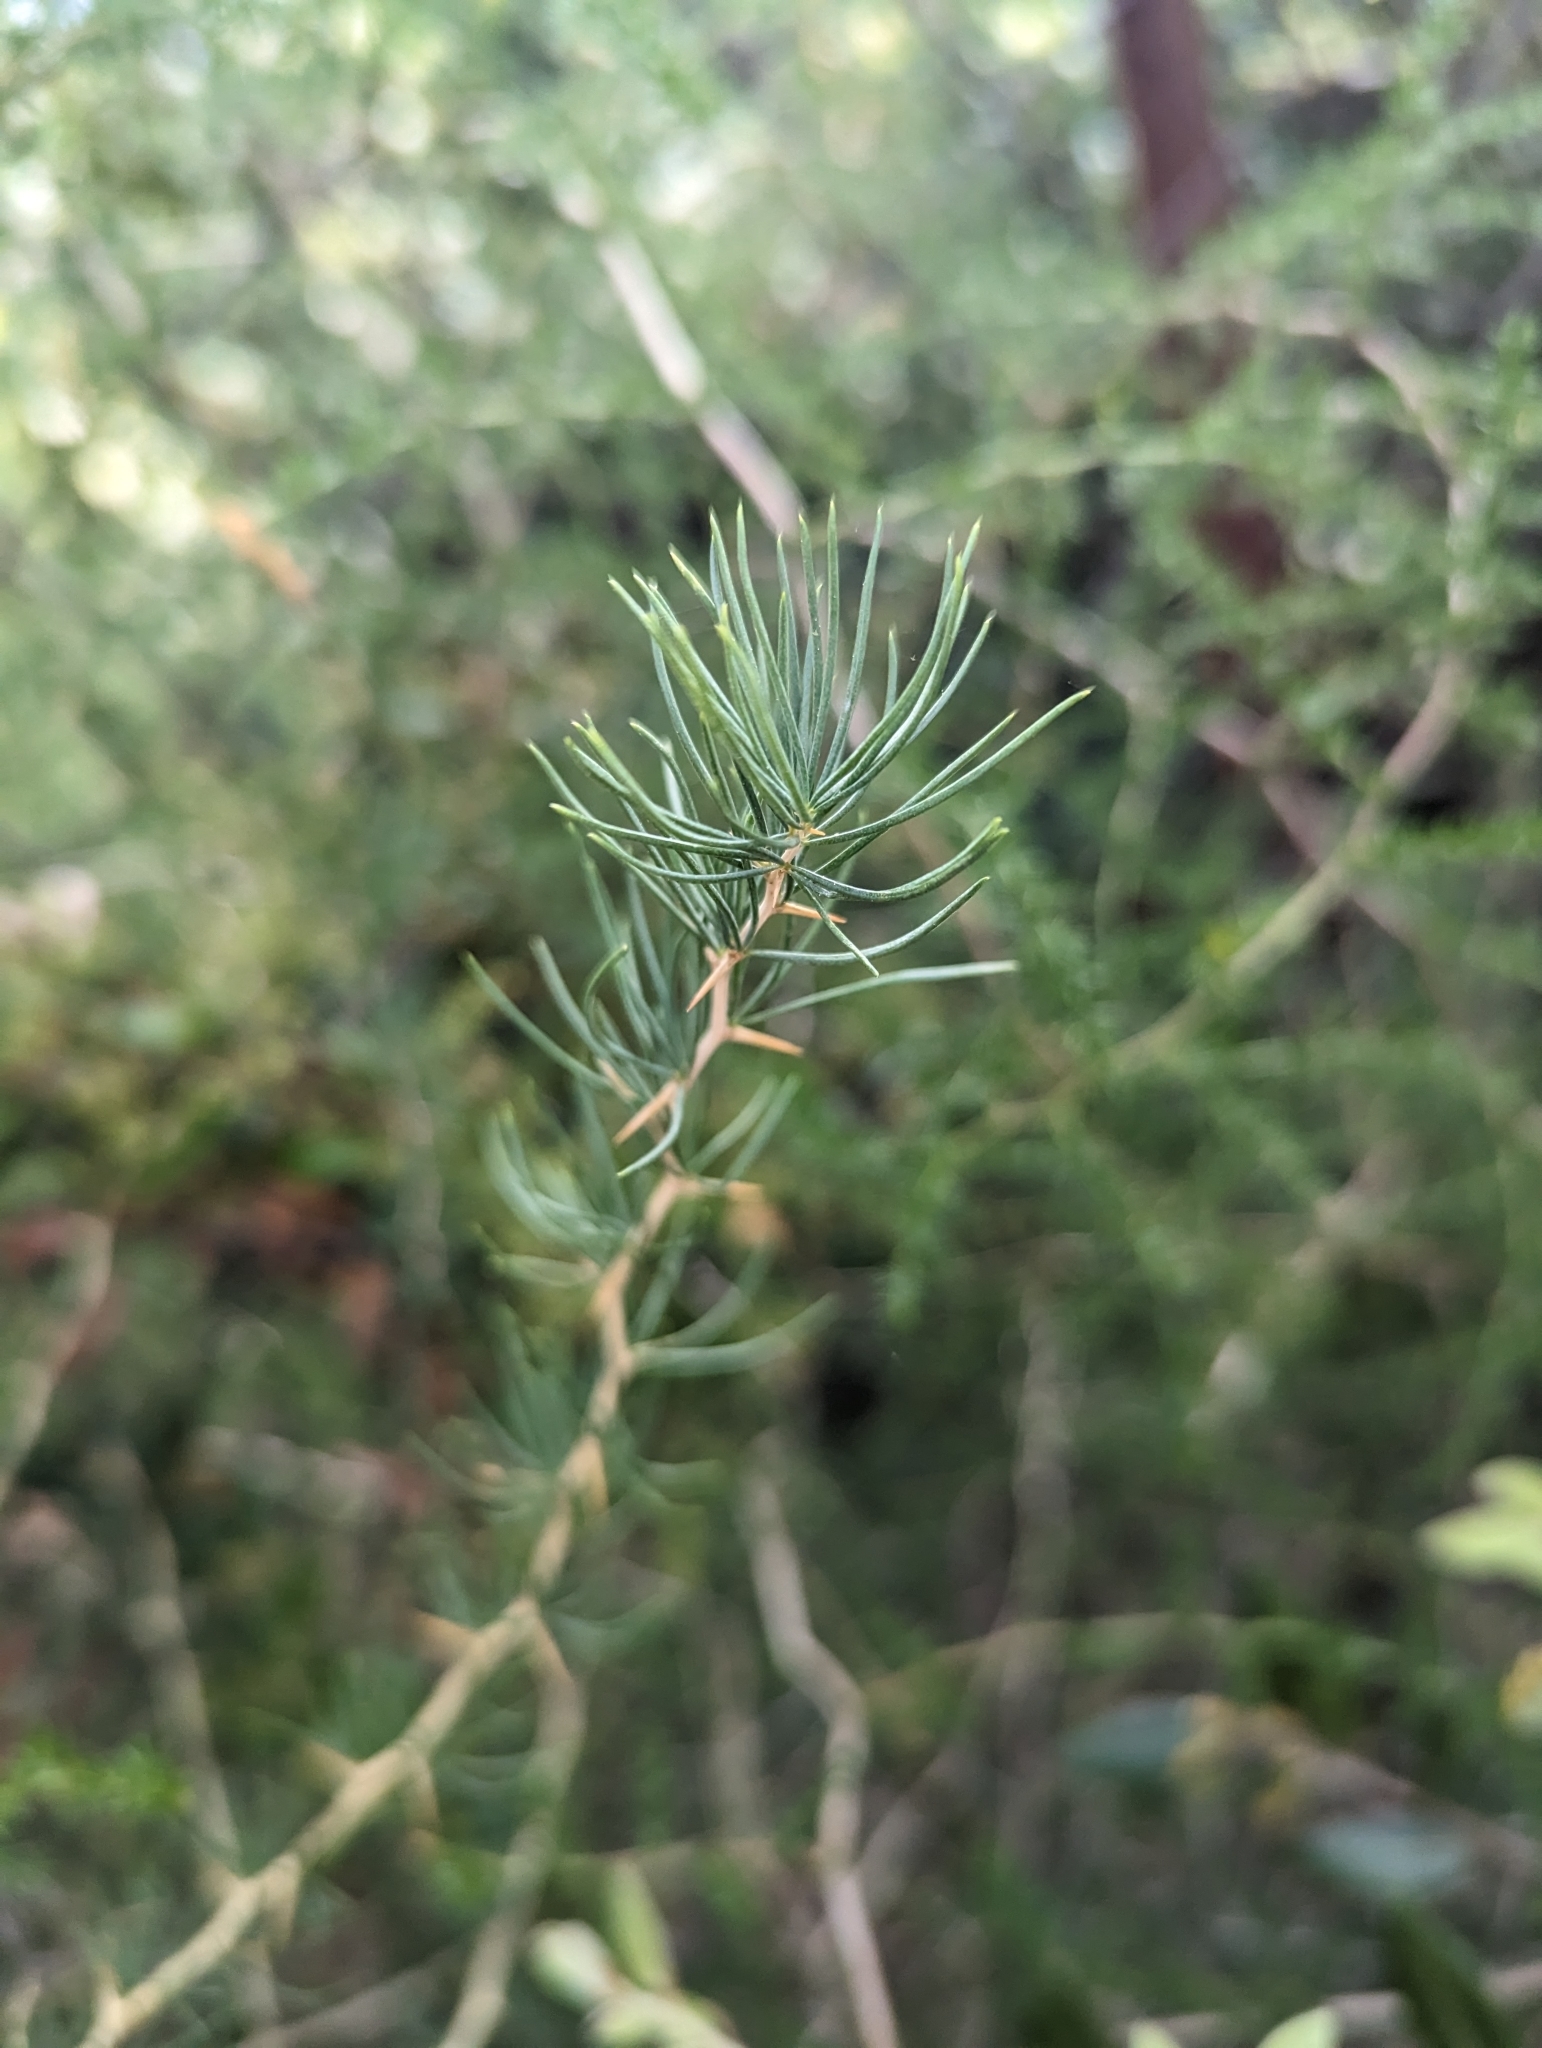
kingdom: Plantae
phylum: Tracheophyta
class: Liliopsida
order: Asparagales
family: Asparagaceae
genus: Asparagus
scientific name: Asparagus albus
